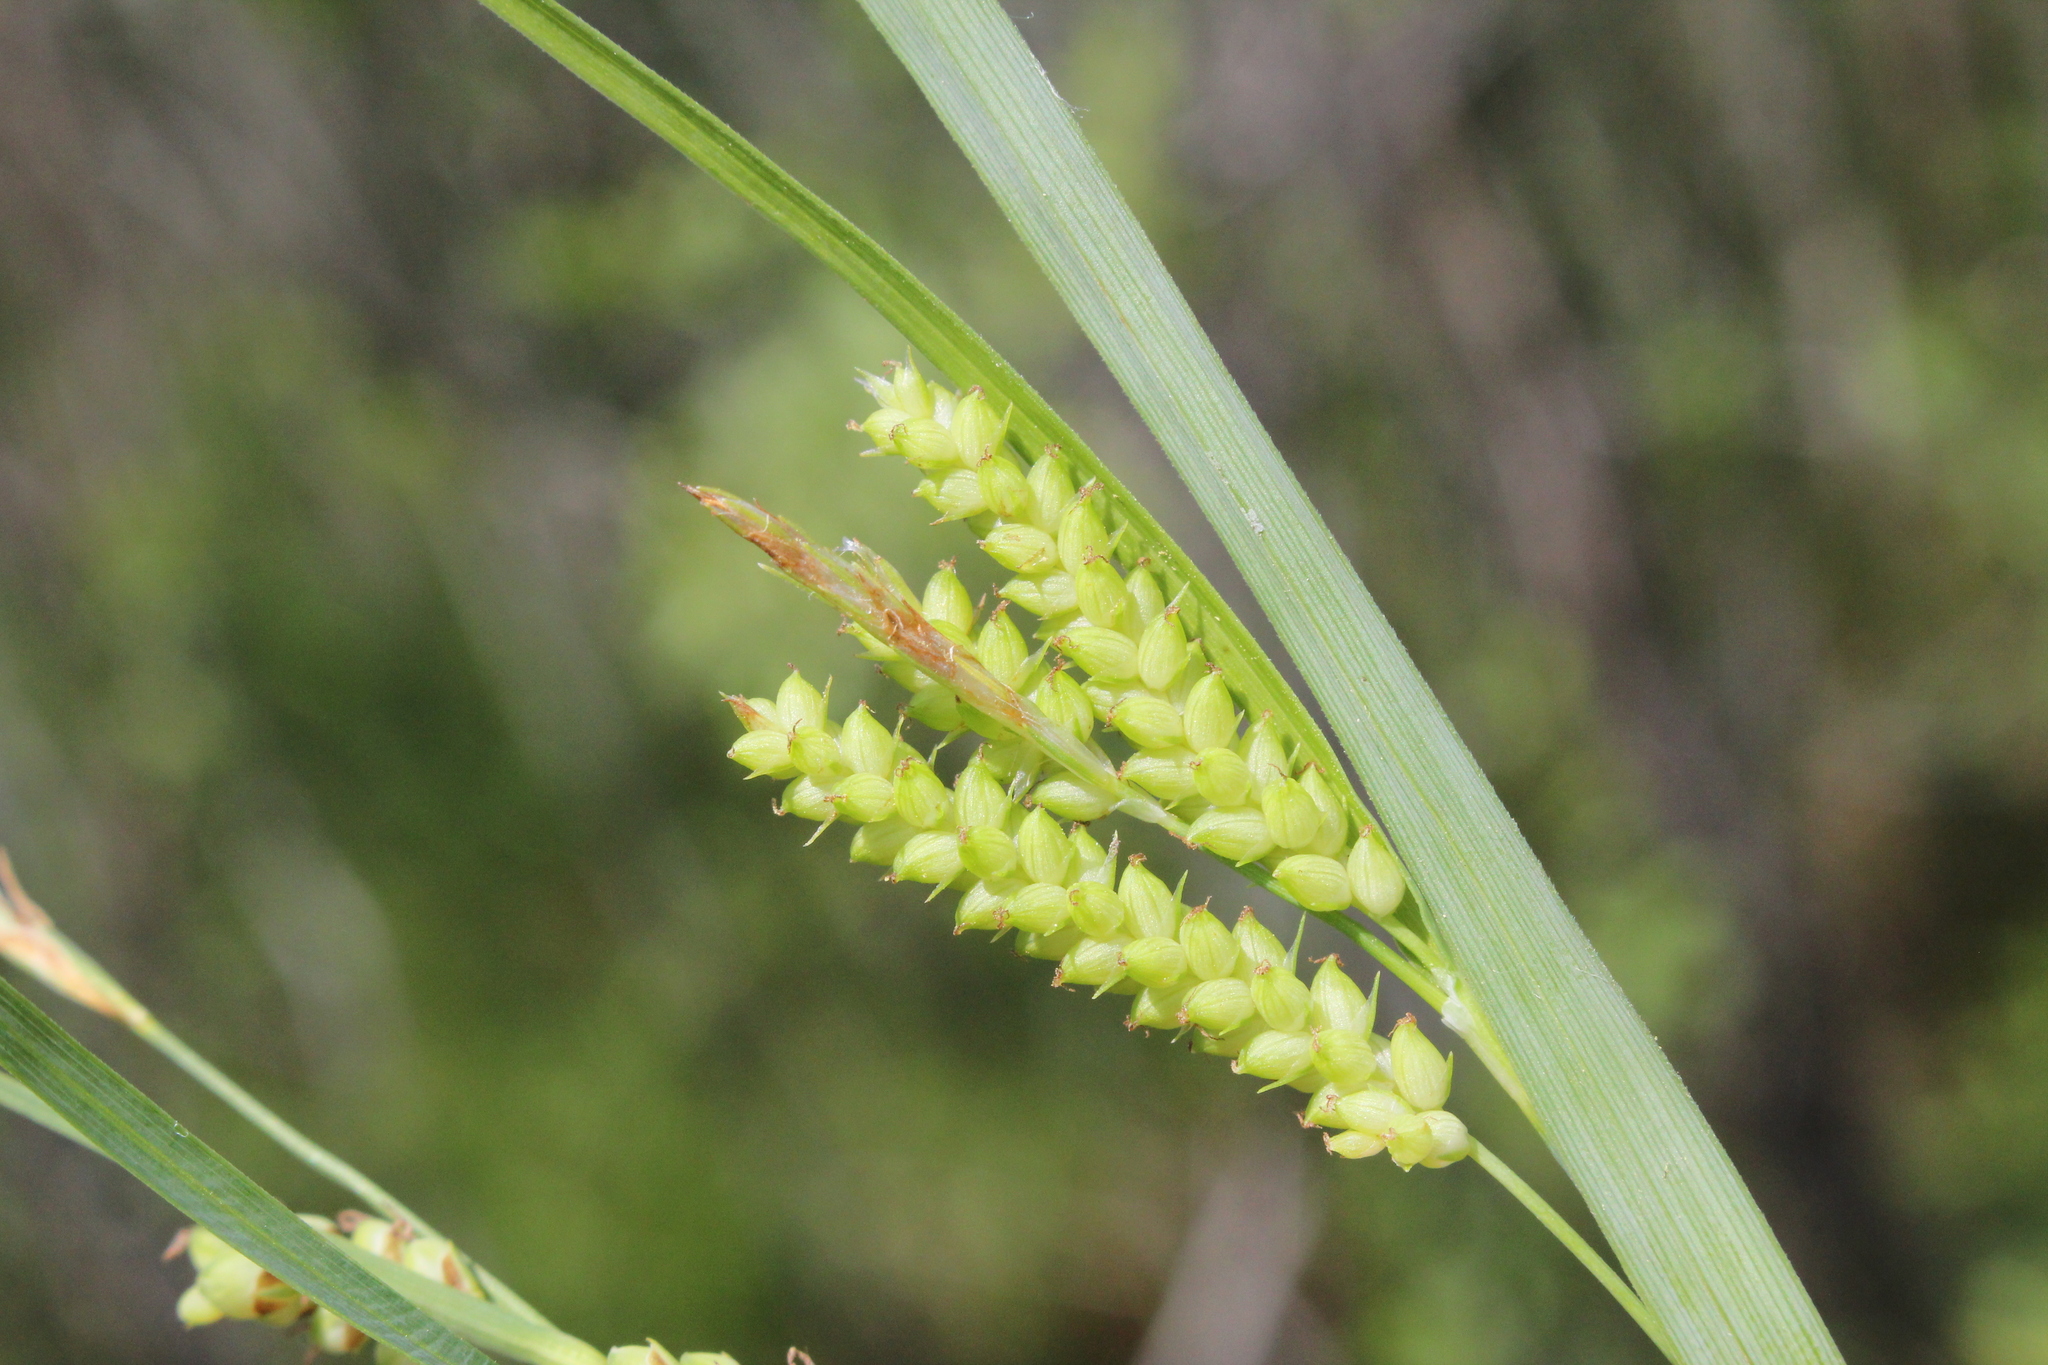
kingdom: Plantae
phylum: Tracheophyta
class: Liliopsida
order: Poales
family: Cyperaceae
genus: Carex
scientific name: Carex granularis
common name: Granular sedge
